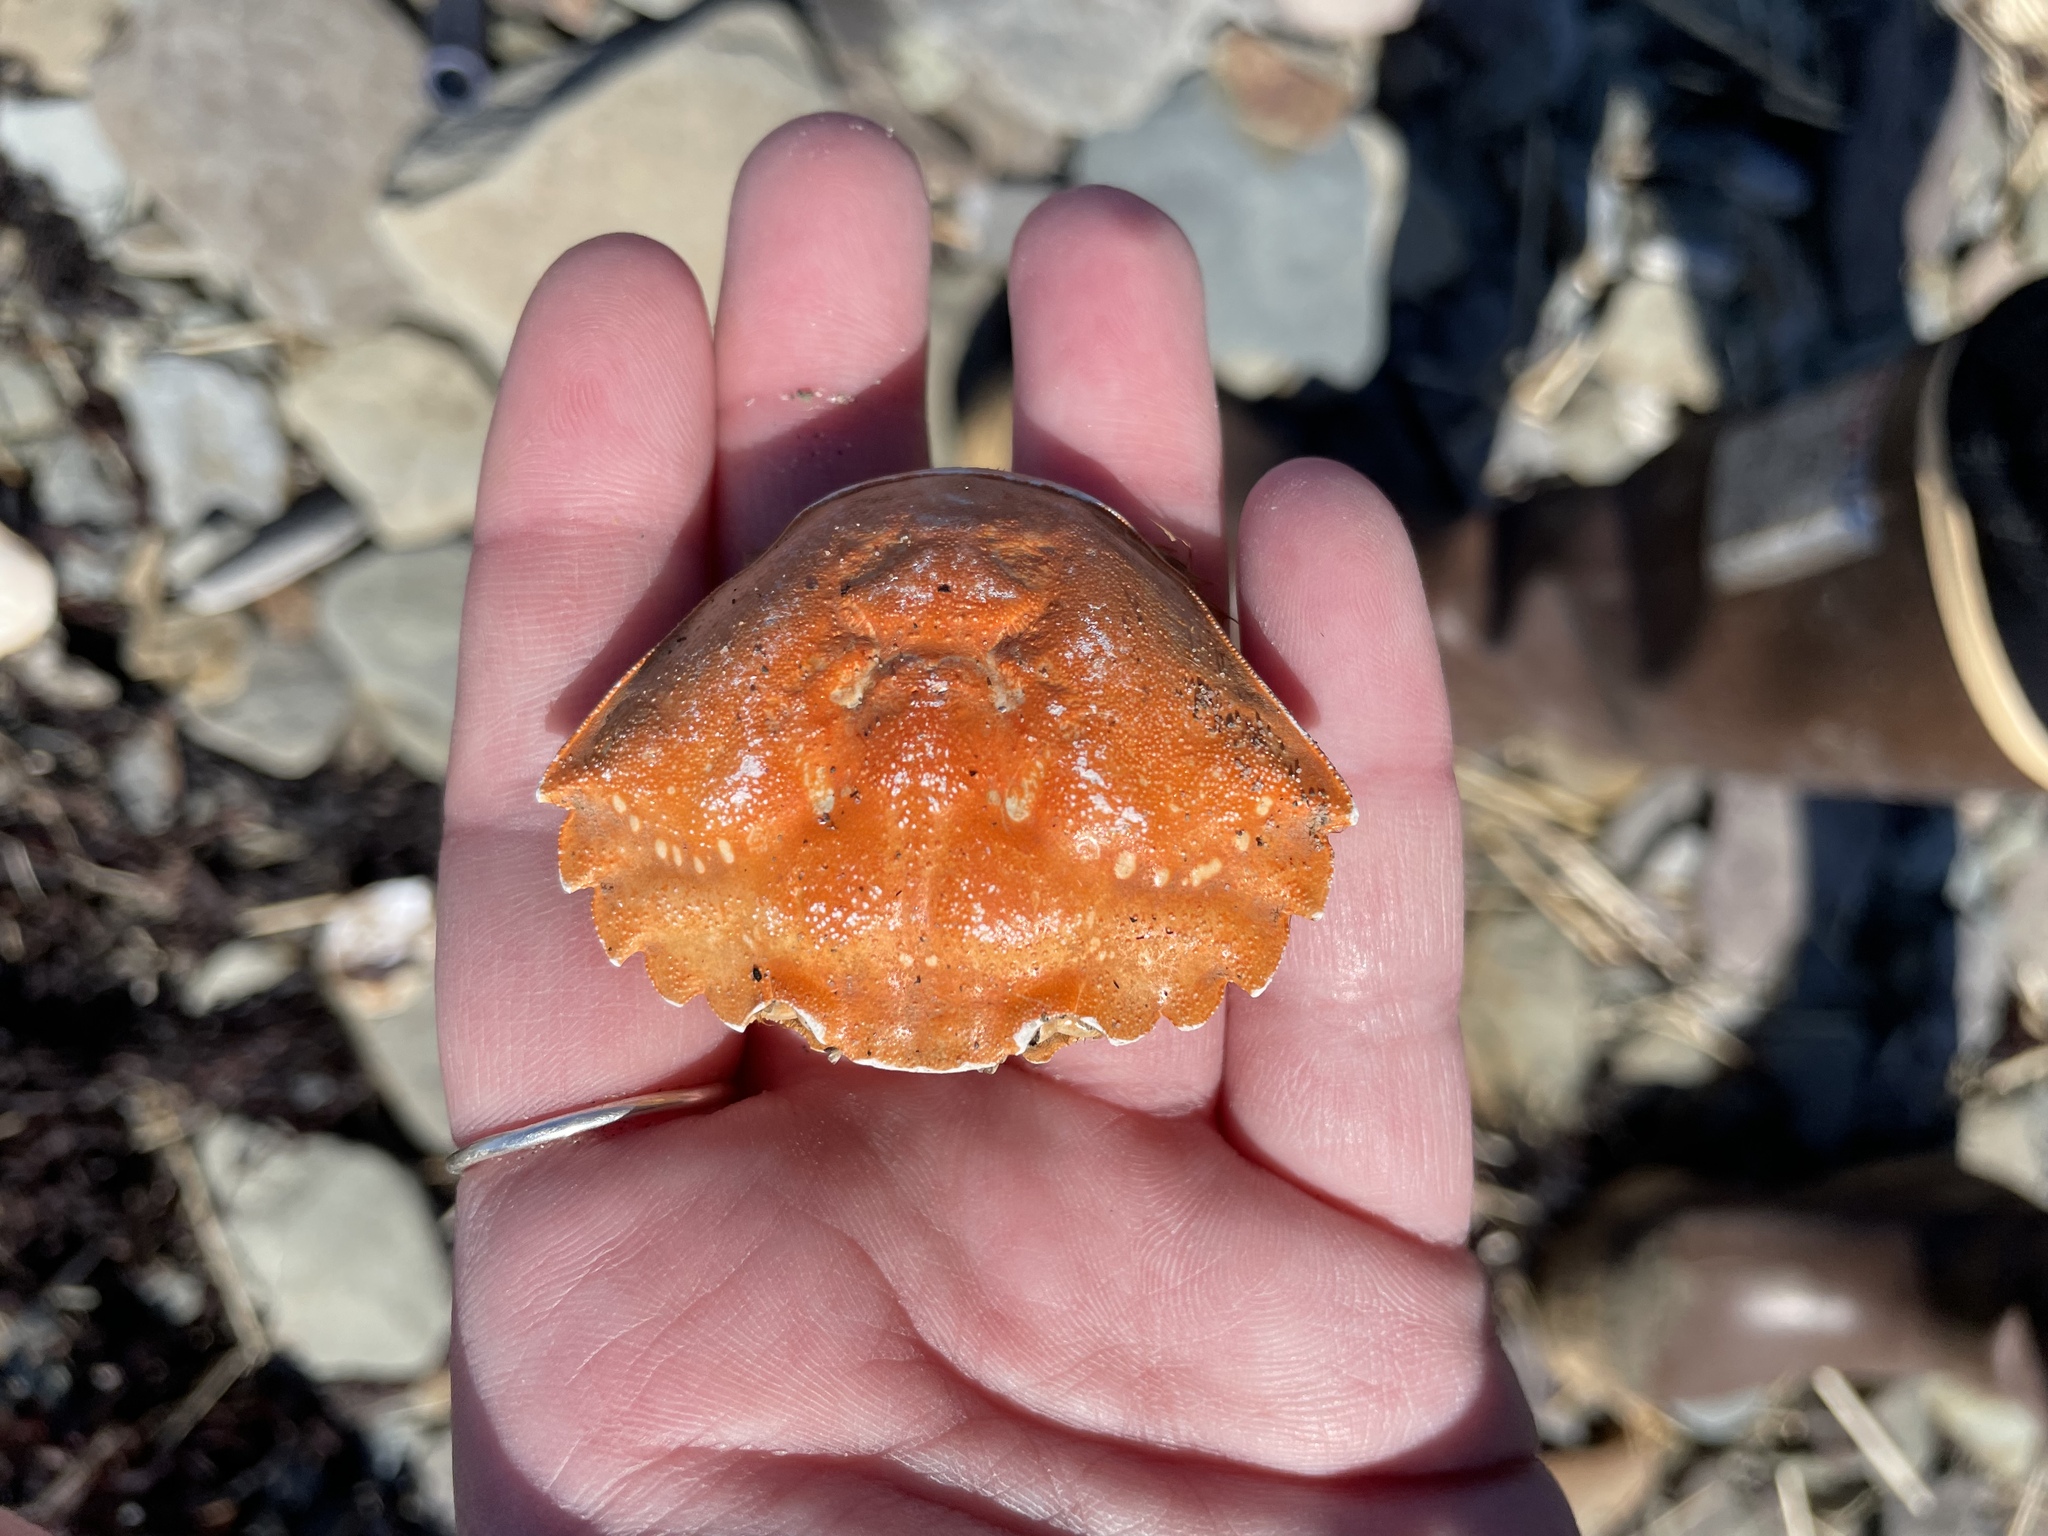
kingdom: Animalia
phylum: Arthropoda
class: Malacostraca
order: Decapoda
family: Carcinidae
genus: Carcinus
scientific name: Carcinus maenas
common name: European green crab
